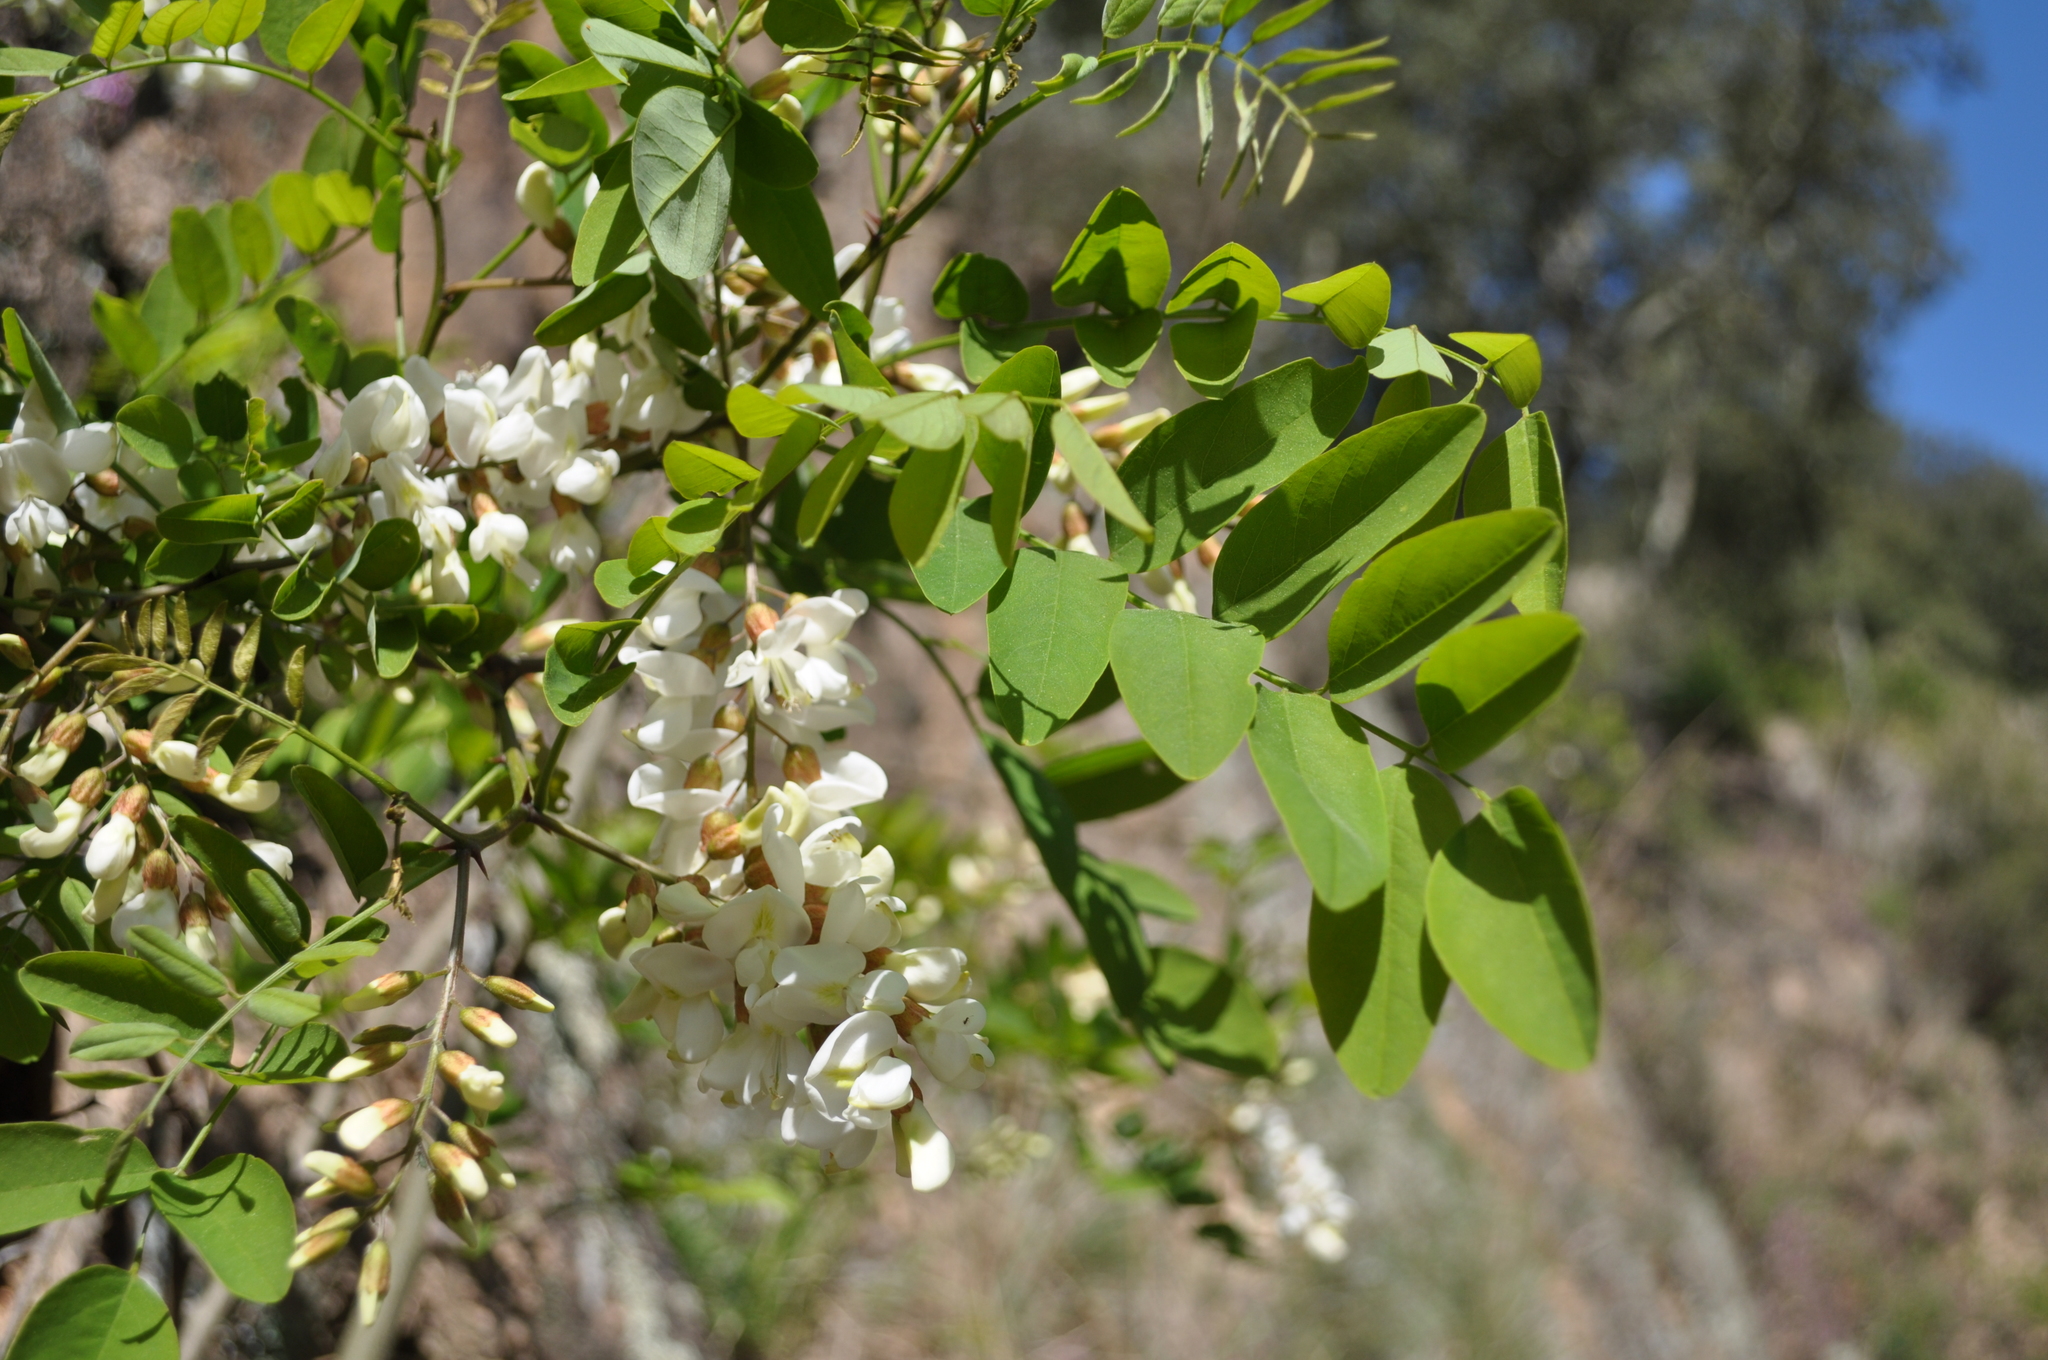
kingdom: Plantae
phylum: Tracheophyta
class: Magnoliopsida
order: Fabales
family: Fabaceae
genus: Robinia
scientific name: Robinia pseudoacacia
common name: Black locust
